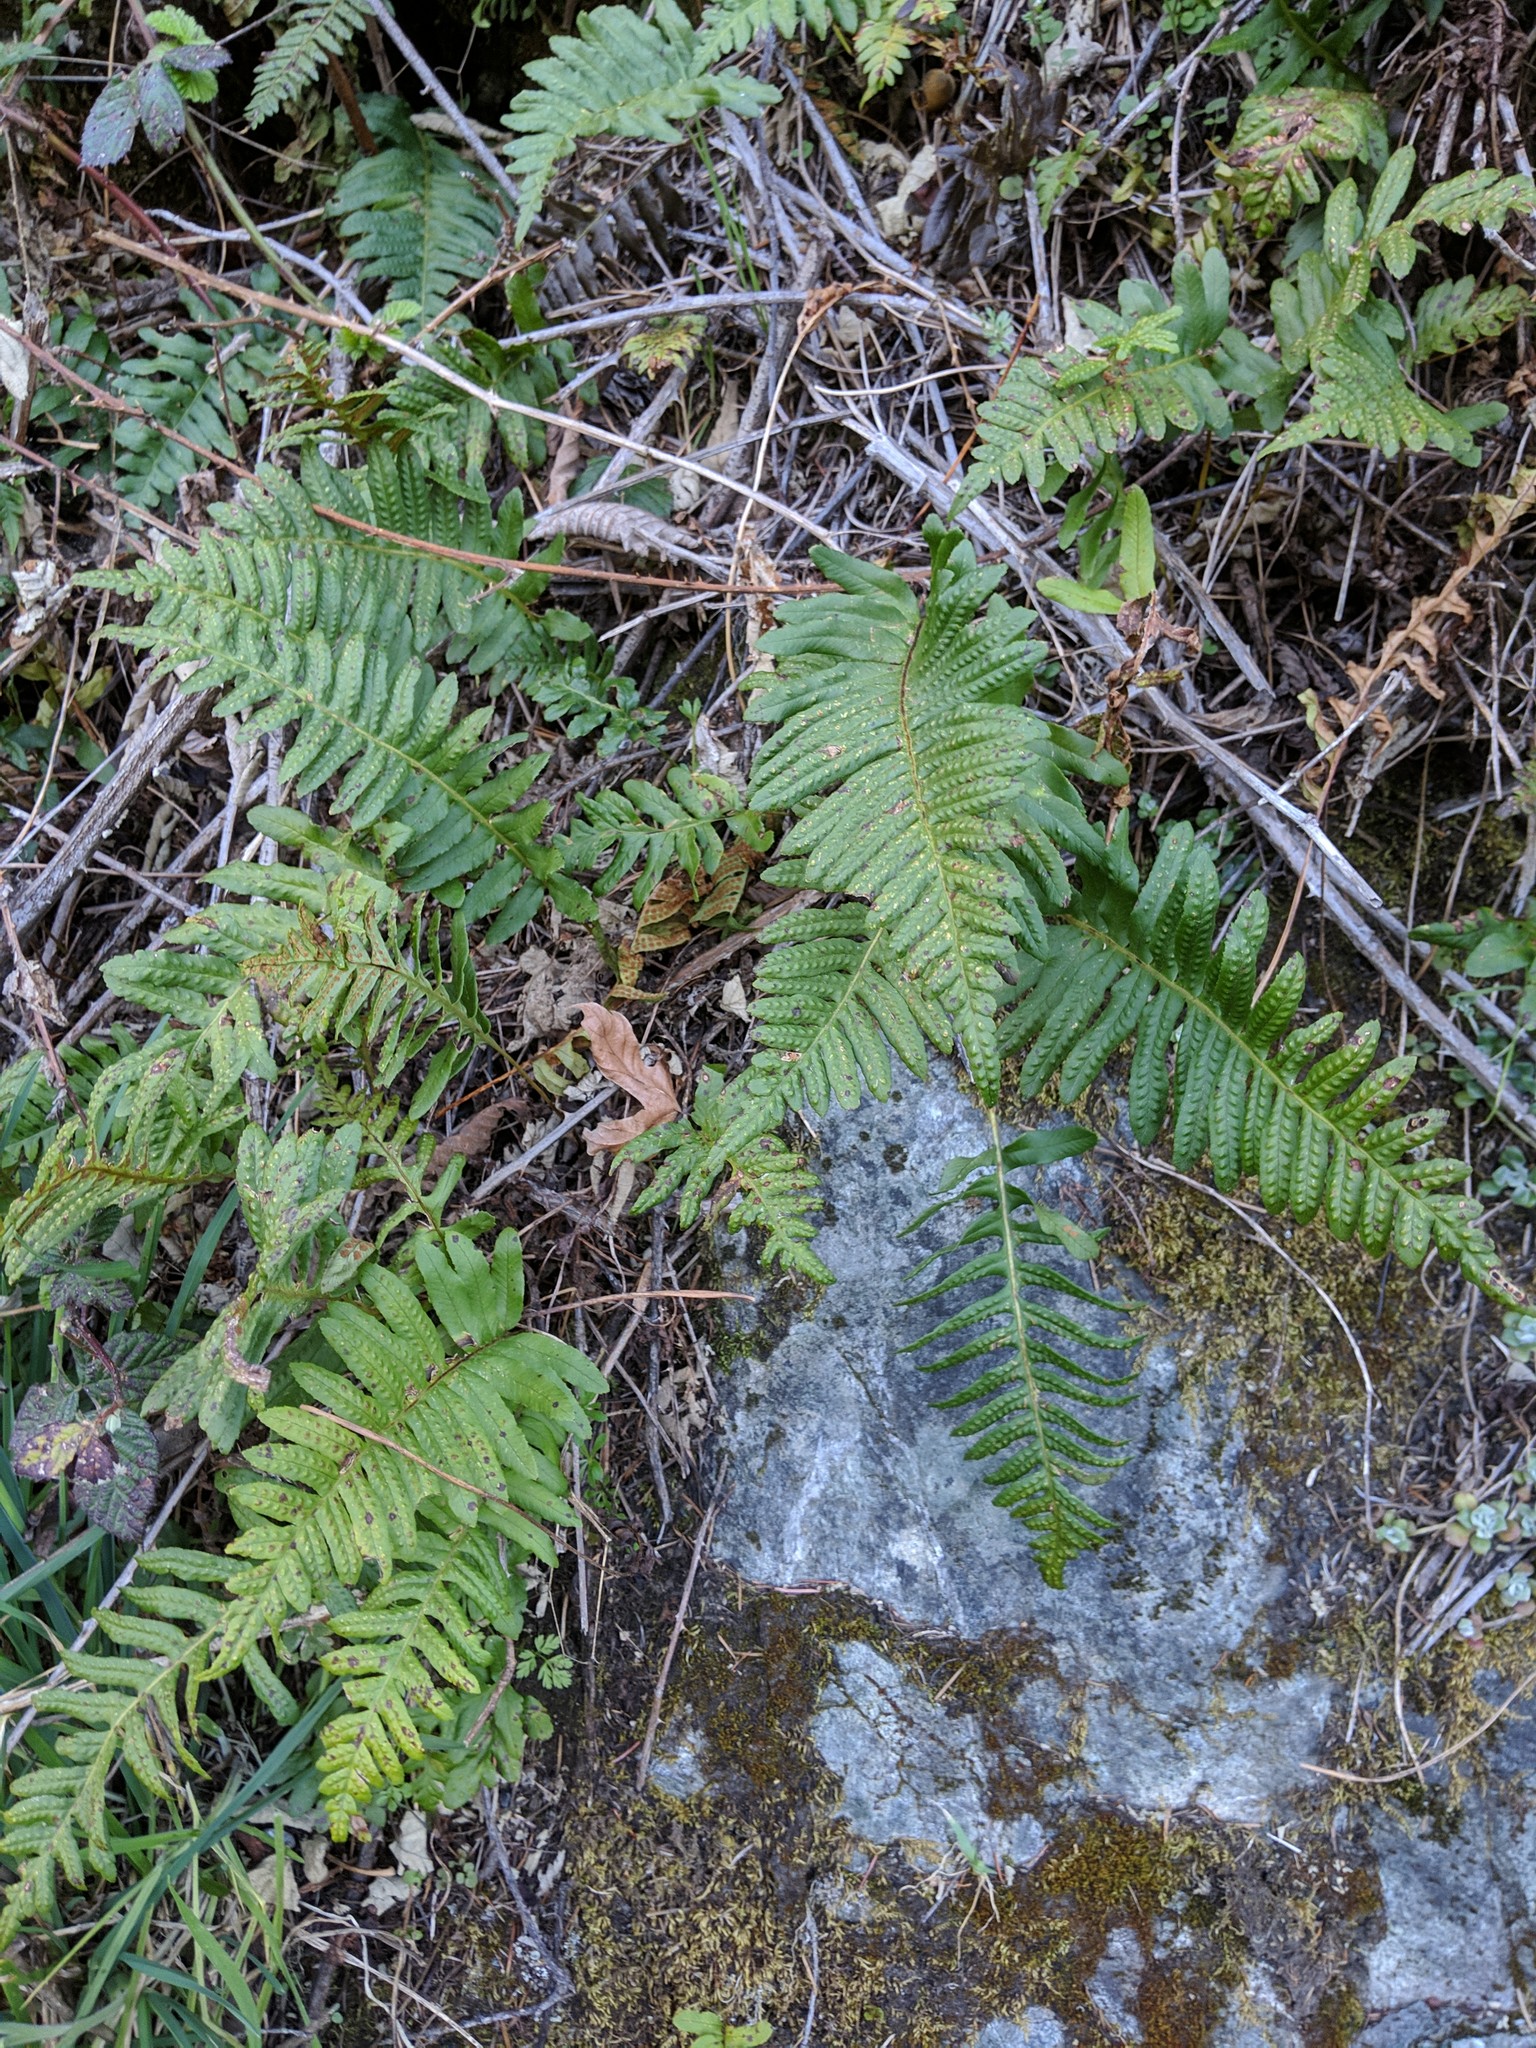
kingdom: Plantae
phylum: Tracheophyta
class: Polypodiopsida
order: Polypodiales
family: Polypodiaceae
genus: Polypodium
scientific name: Polypodium californicum
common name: California polypody
